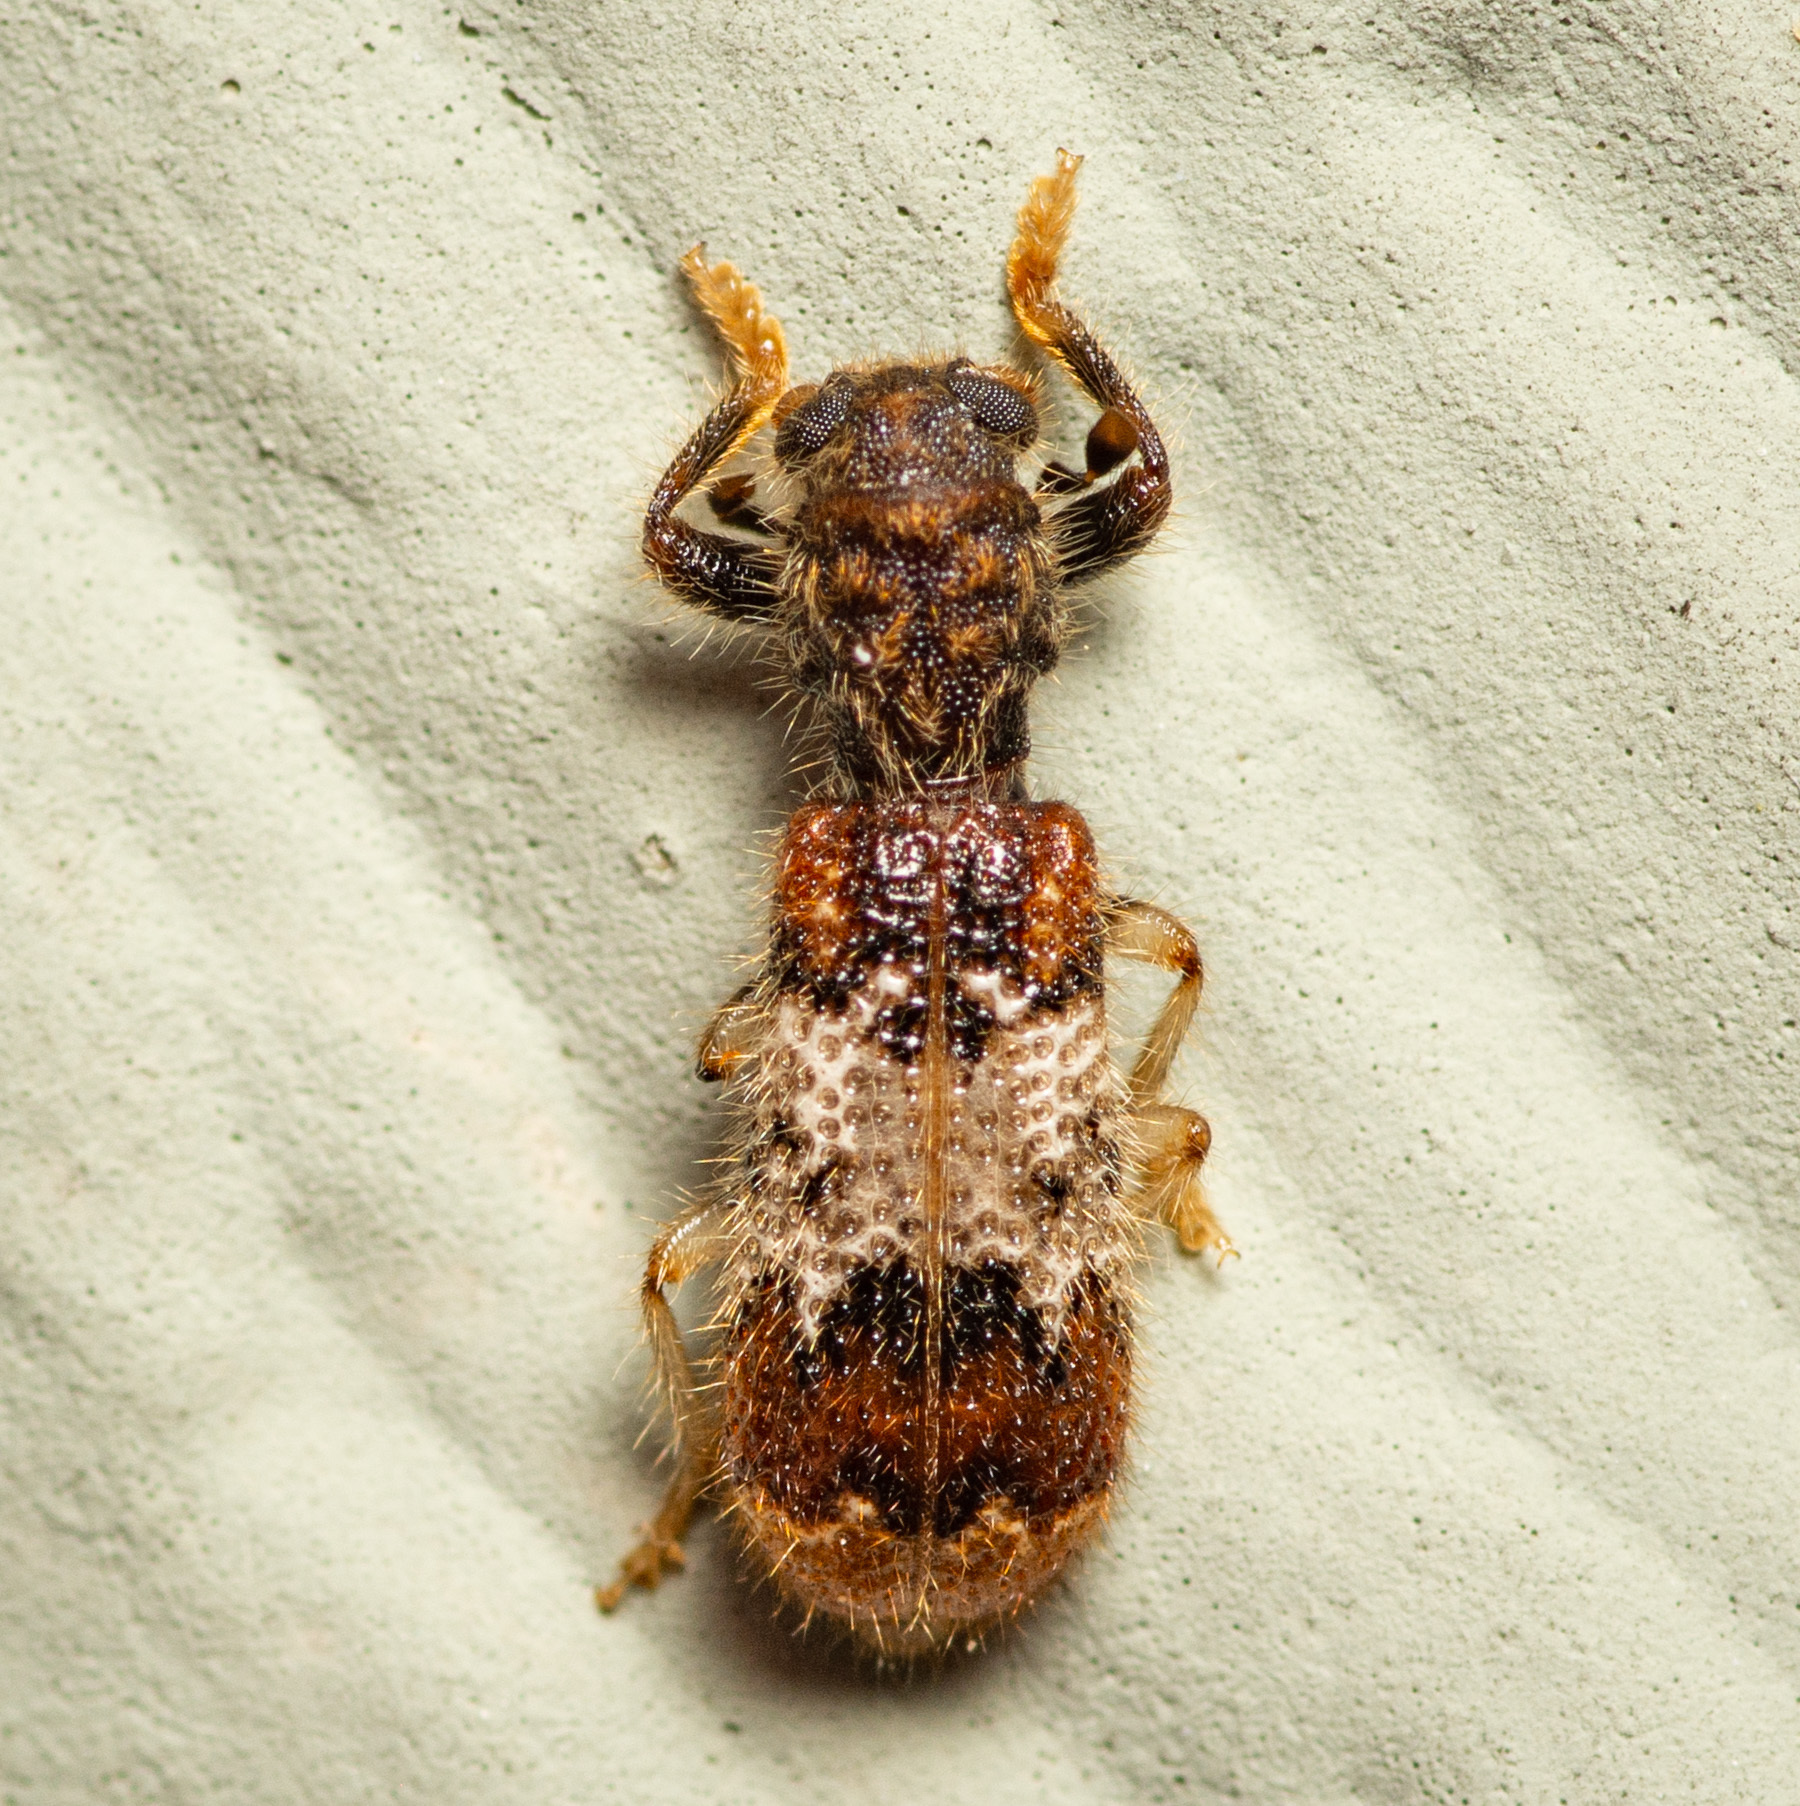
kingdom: Animalia
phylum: Arthropoda
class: Insecta
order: Coleoptera
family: Cleridae
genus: Pelonium
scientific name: Pelonium leucophaeum
